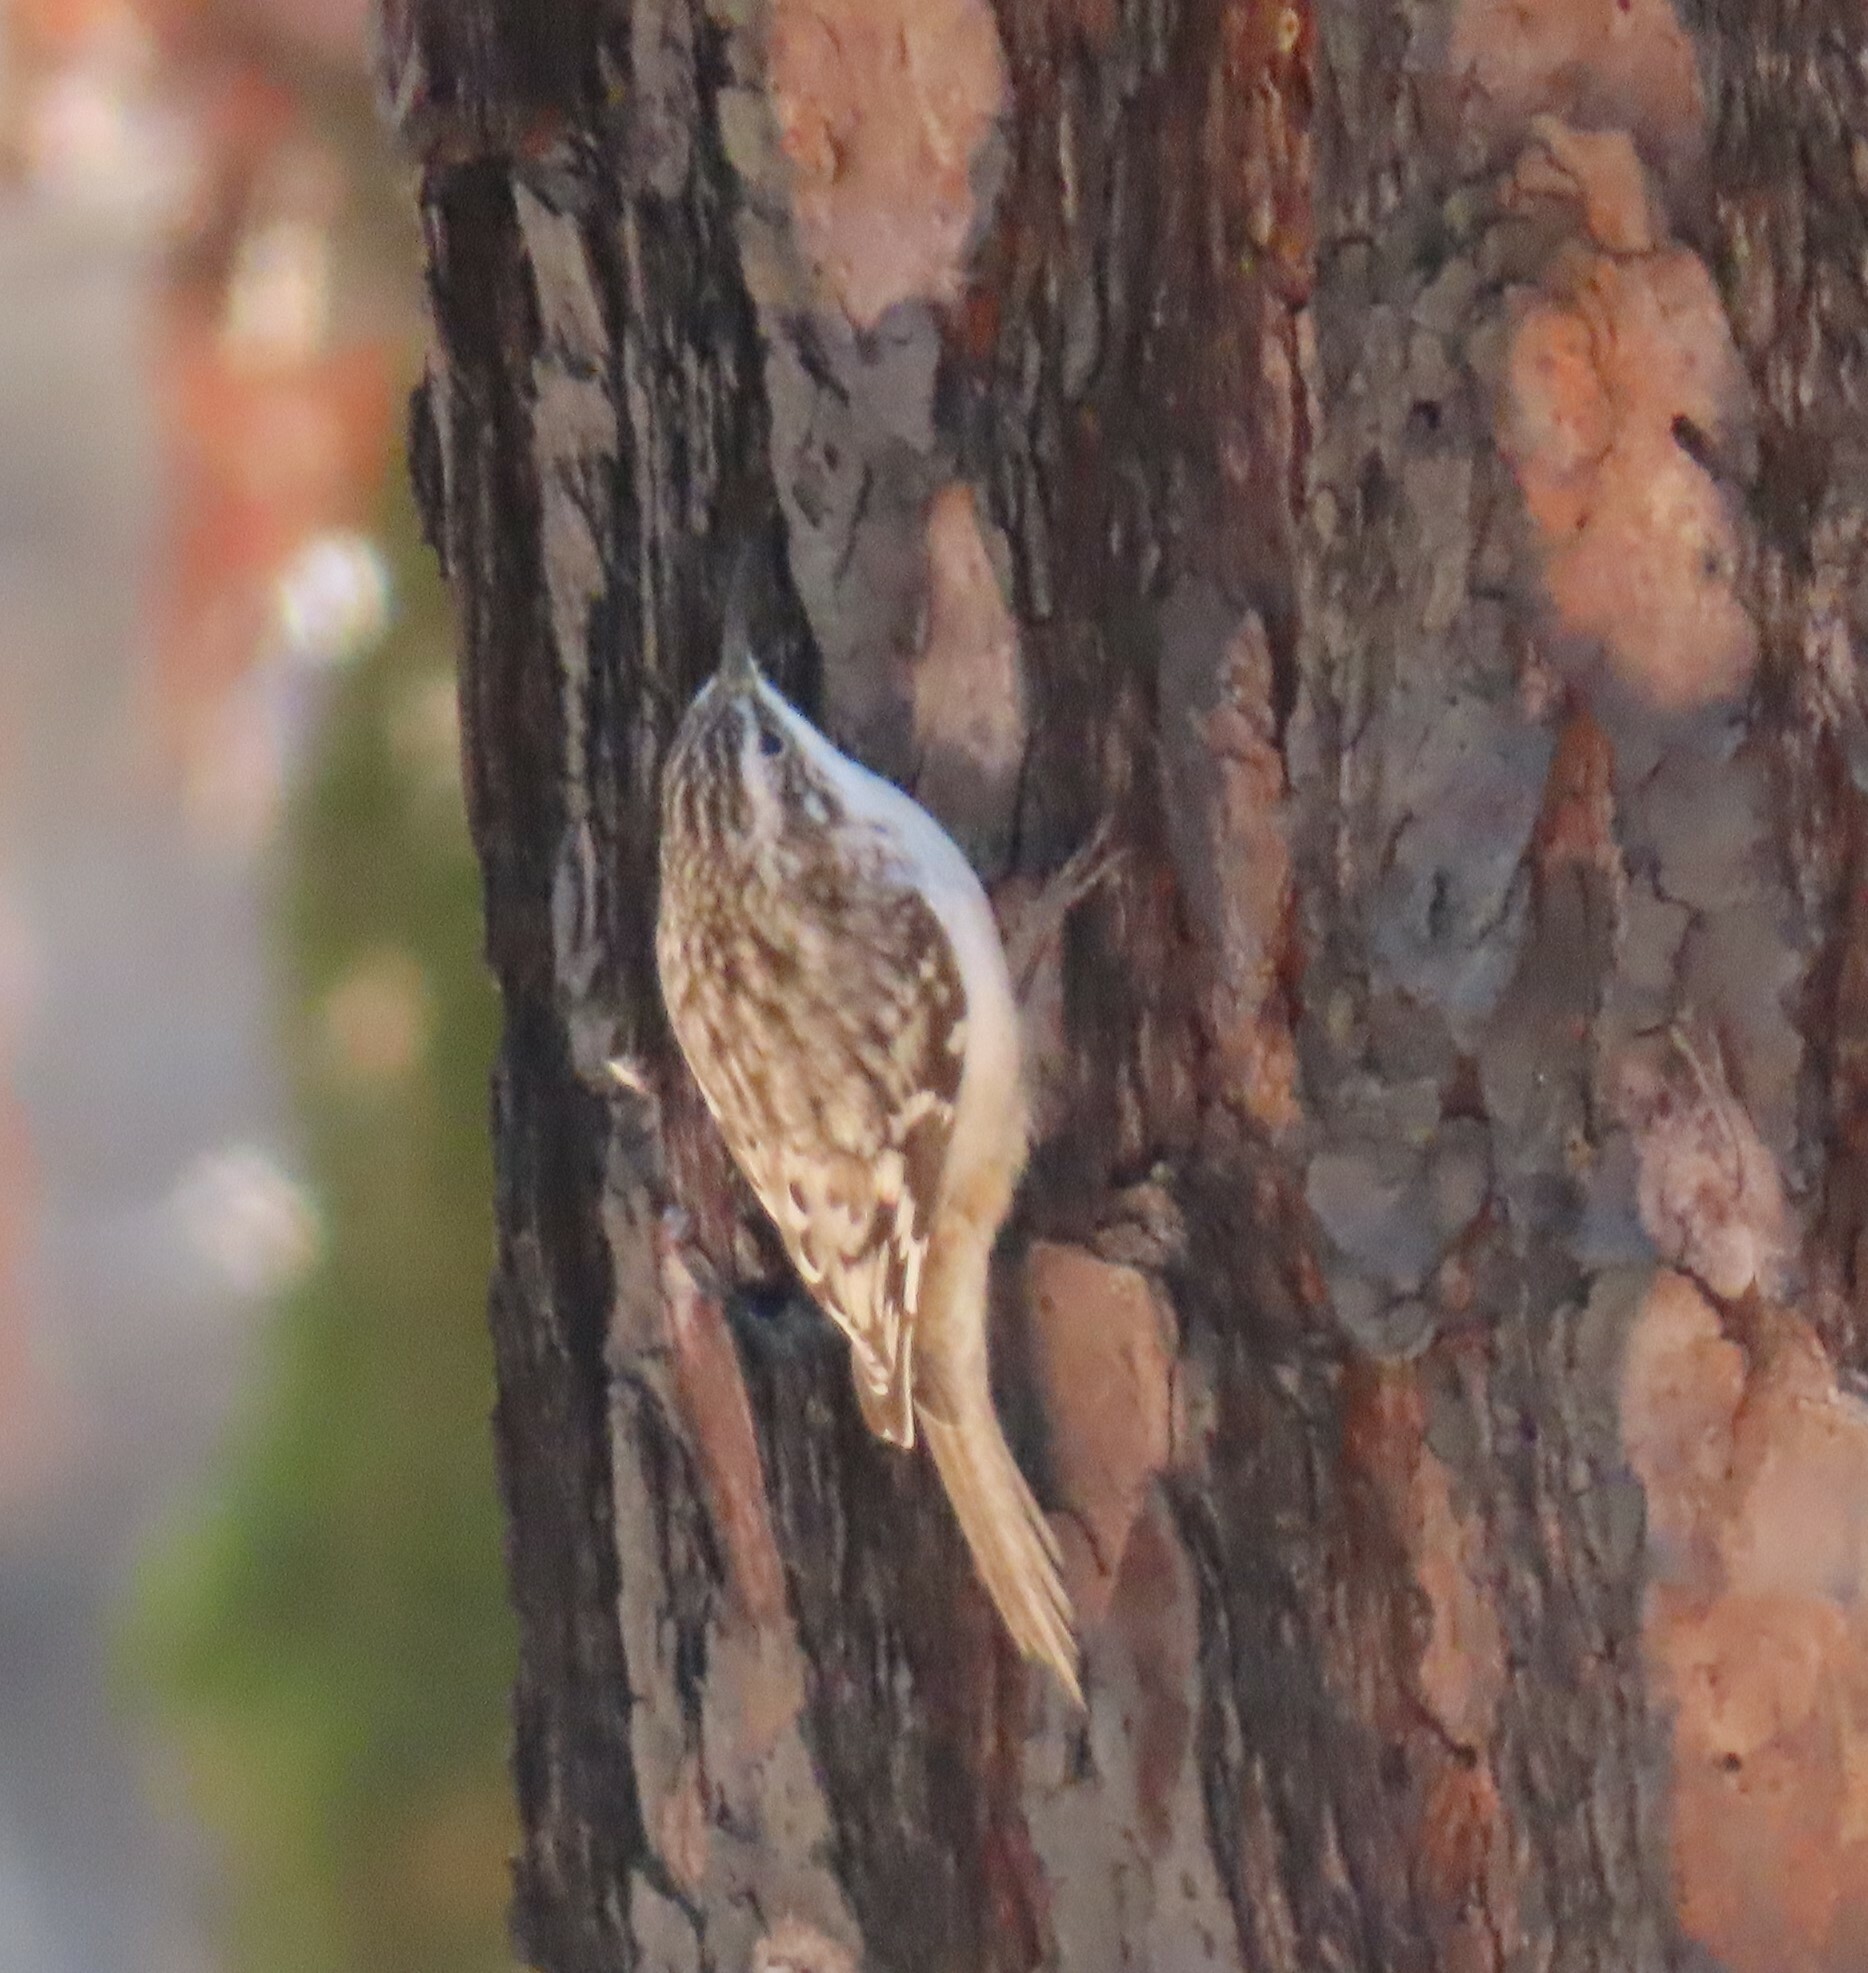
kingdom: Animalia
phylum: Chordata
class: Aves
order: Passeriformes
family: Certhiidae
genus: Certhia
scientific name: Certhia americana
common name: Brown creeper
